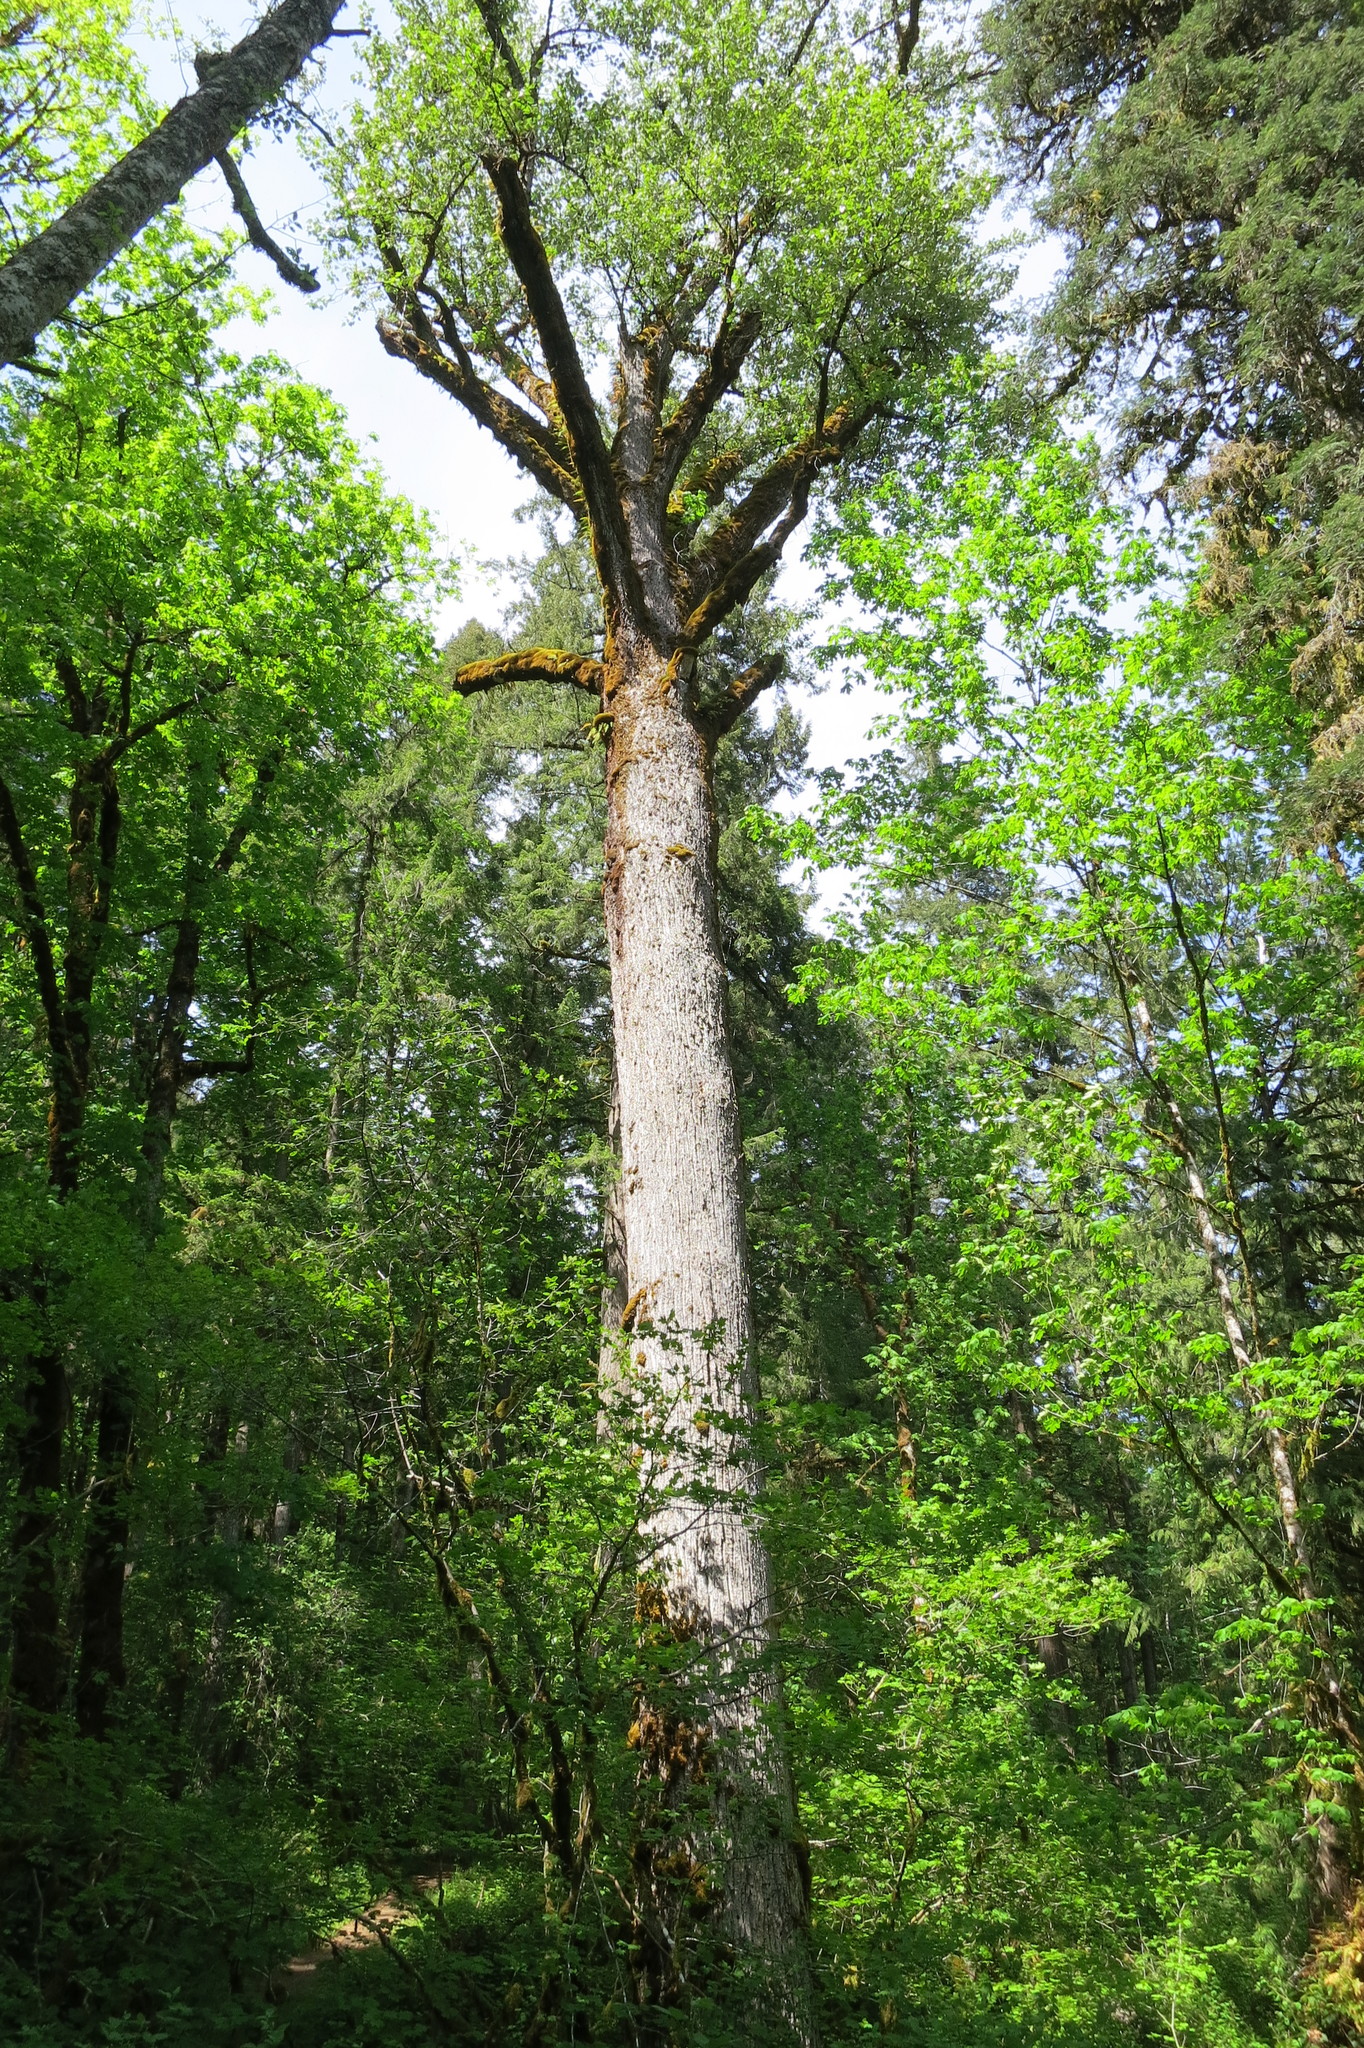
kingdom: Plantae
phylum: Tracheophyta
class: Magnoliopsida
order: Malpighiales
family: Salicaceae
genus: Populus
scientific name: Populus trichocarpa
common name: Black cottonwood
